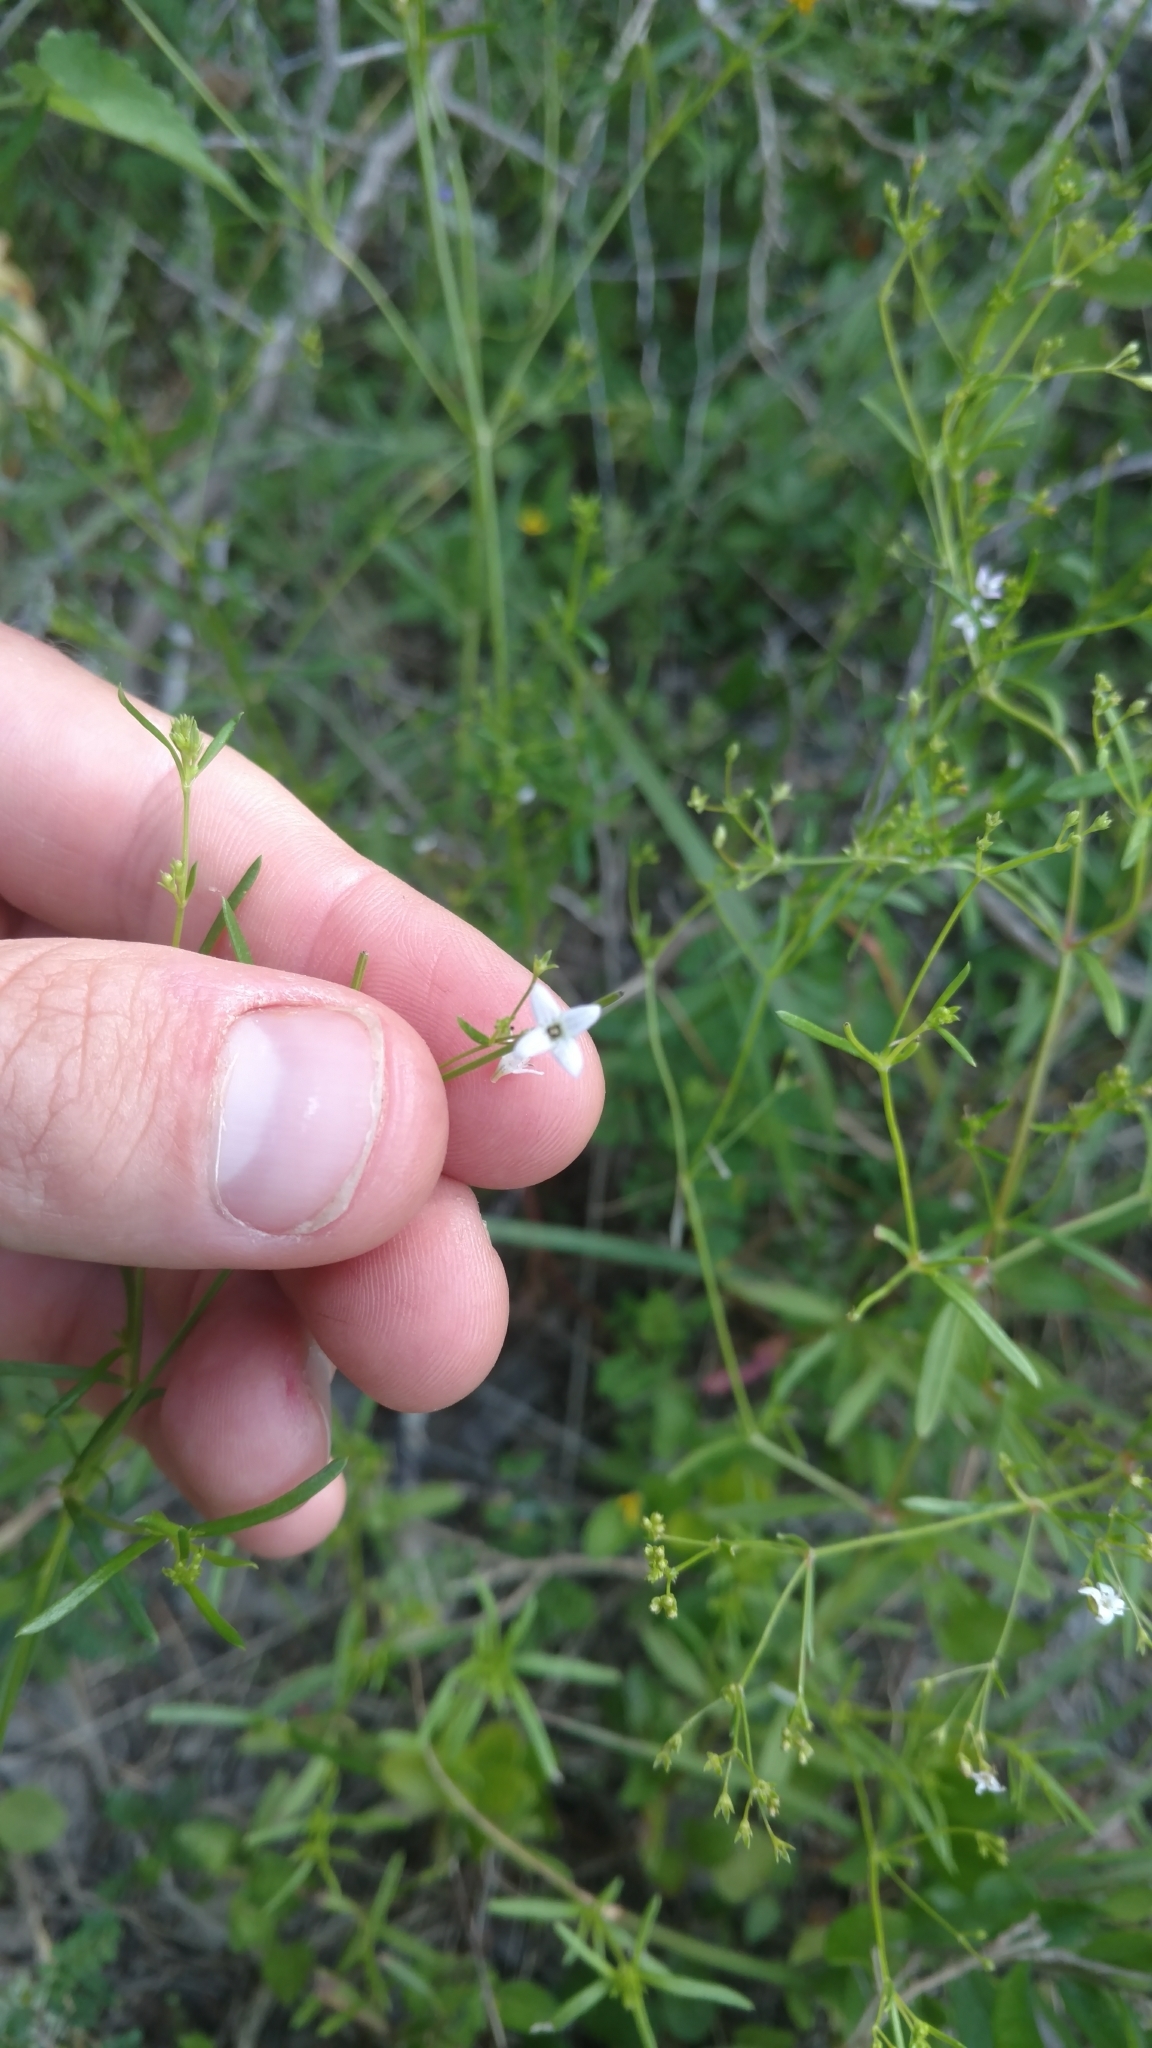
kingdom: Plantae
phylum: Tracheophyta
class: Magnoliopsida
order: Gentianales
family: Rubiaceae
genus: Stenaria
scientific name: Stenaria nigricans
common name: Diamondflowers
